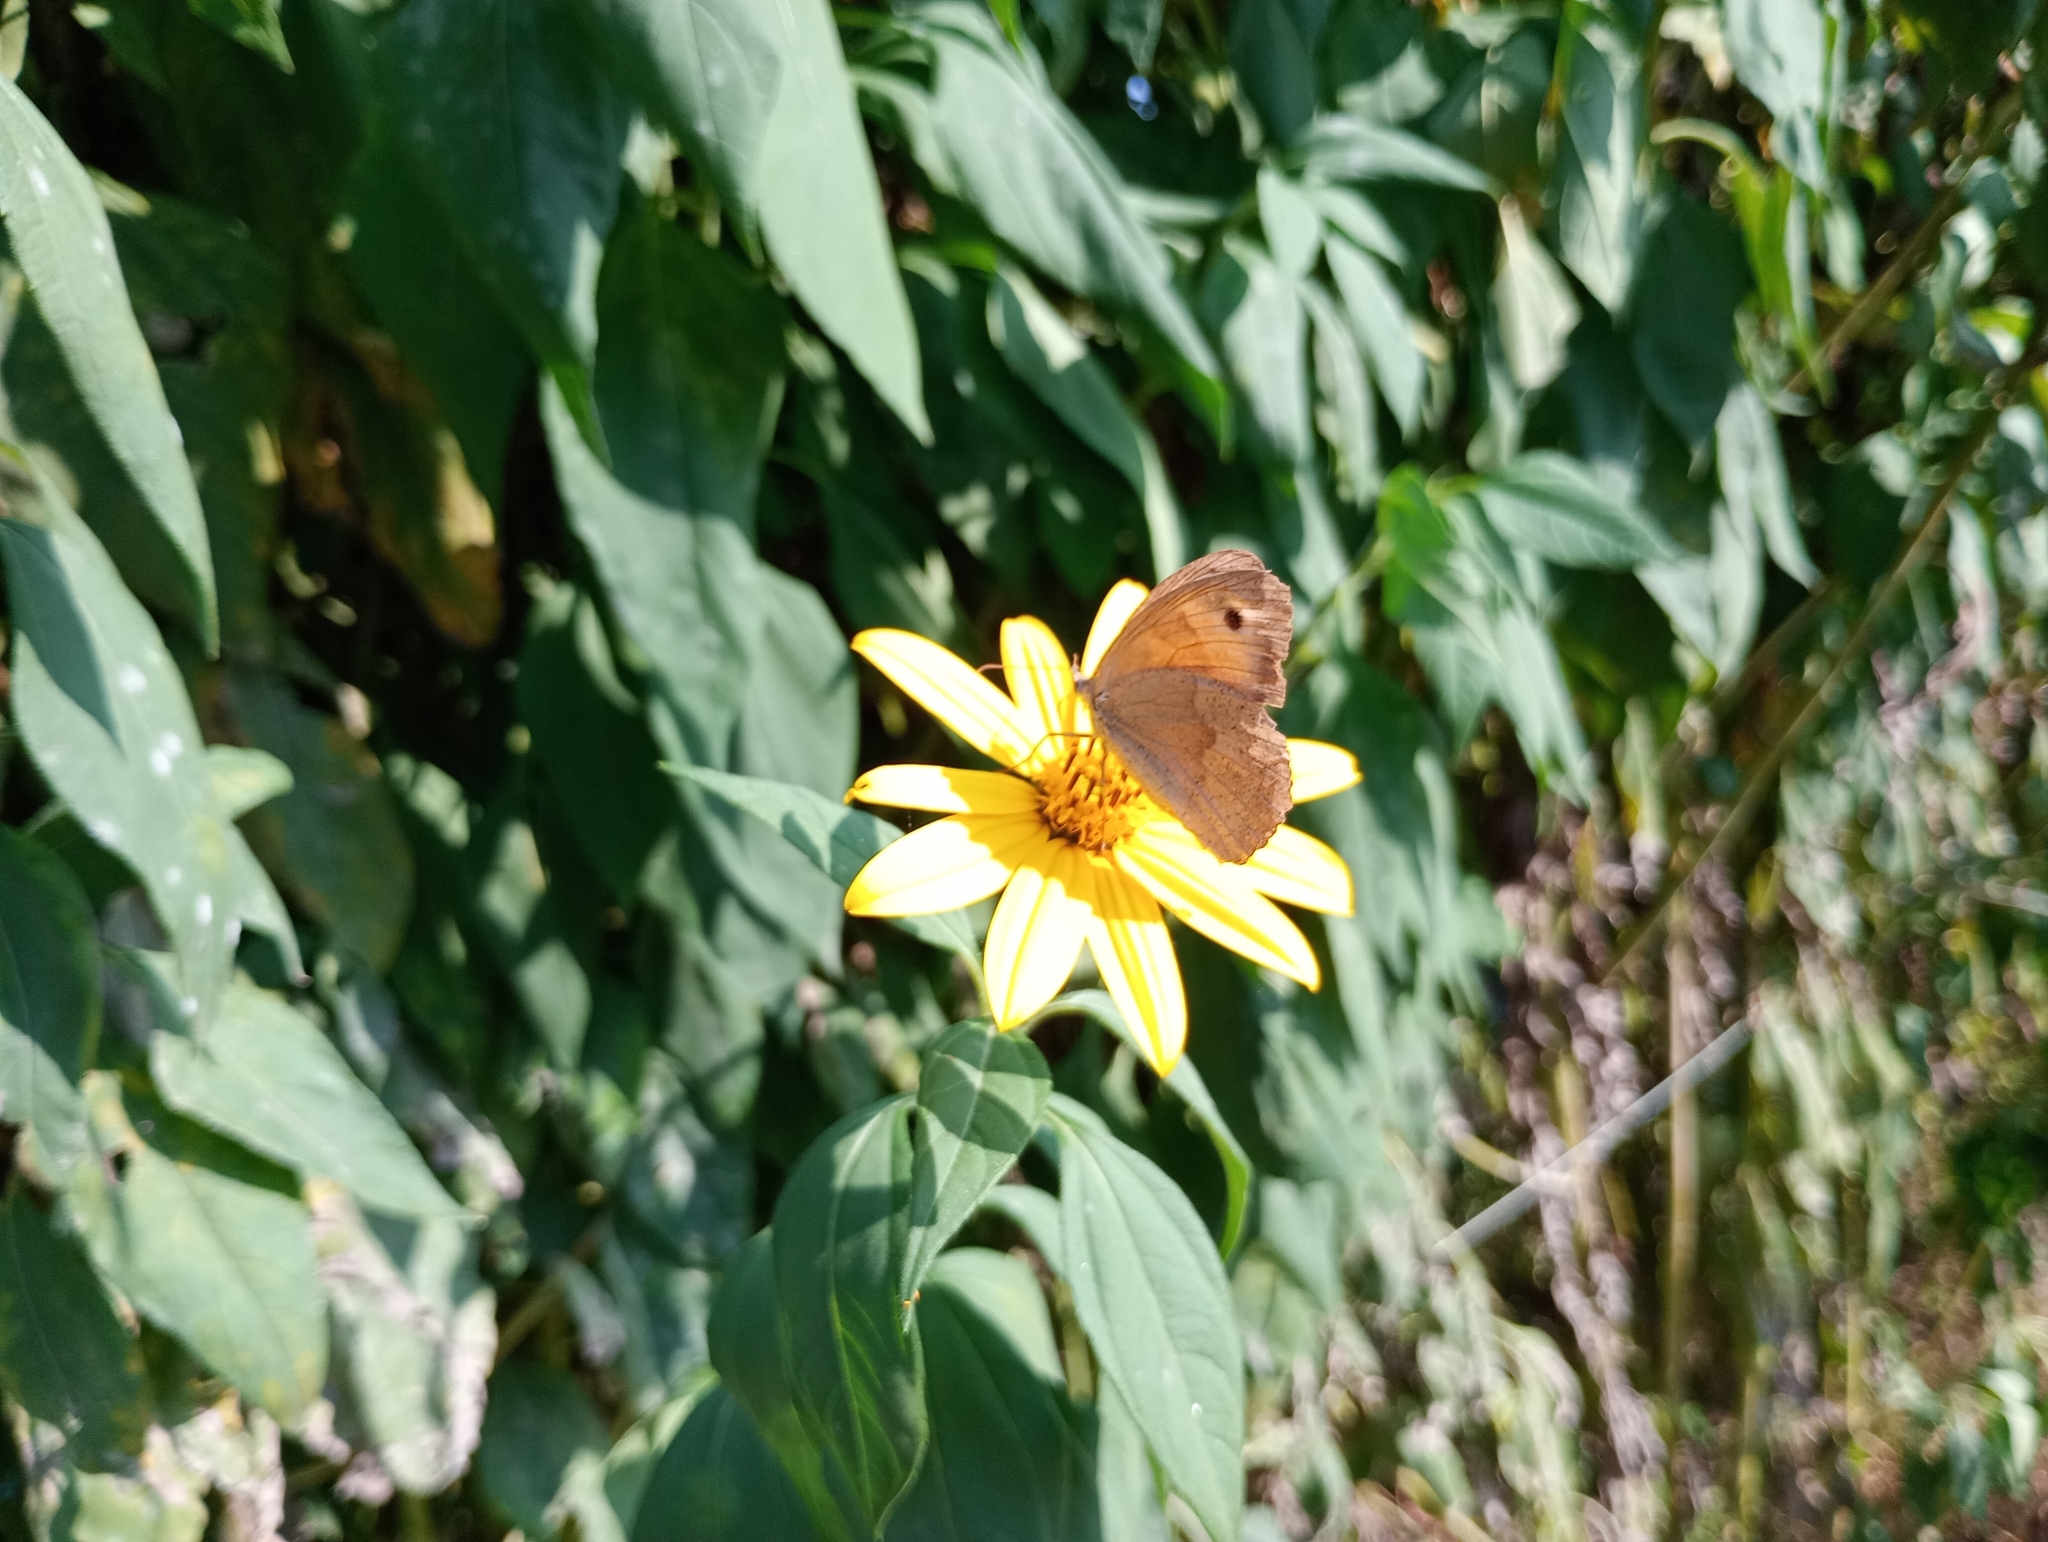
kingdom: Animalia
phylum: Arthropoda
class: Insecta
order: Lepidoptera
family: Nymphalidae
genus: Maniola
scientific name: Maniola jurtina
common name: Meadow brown
